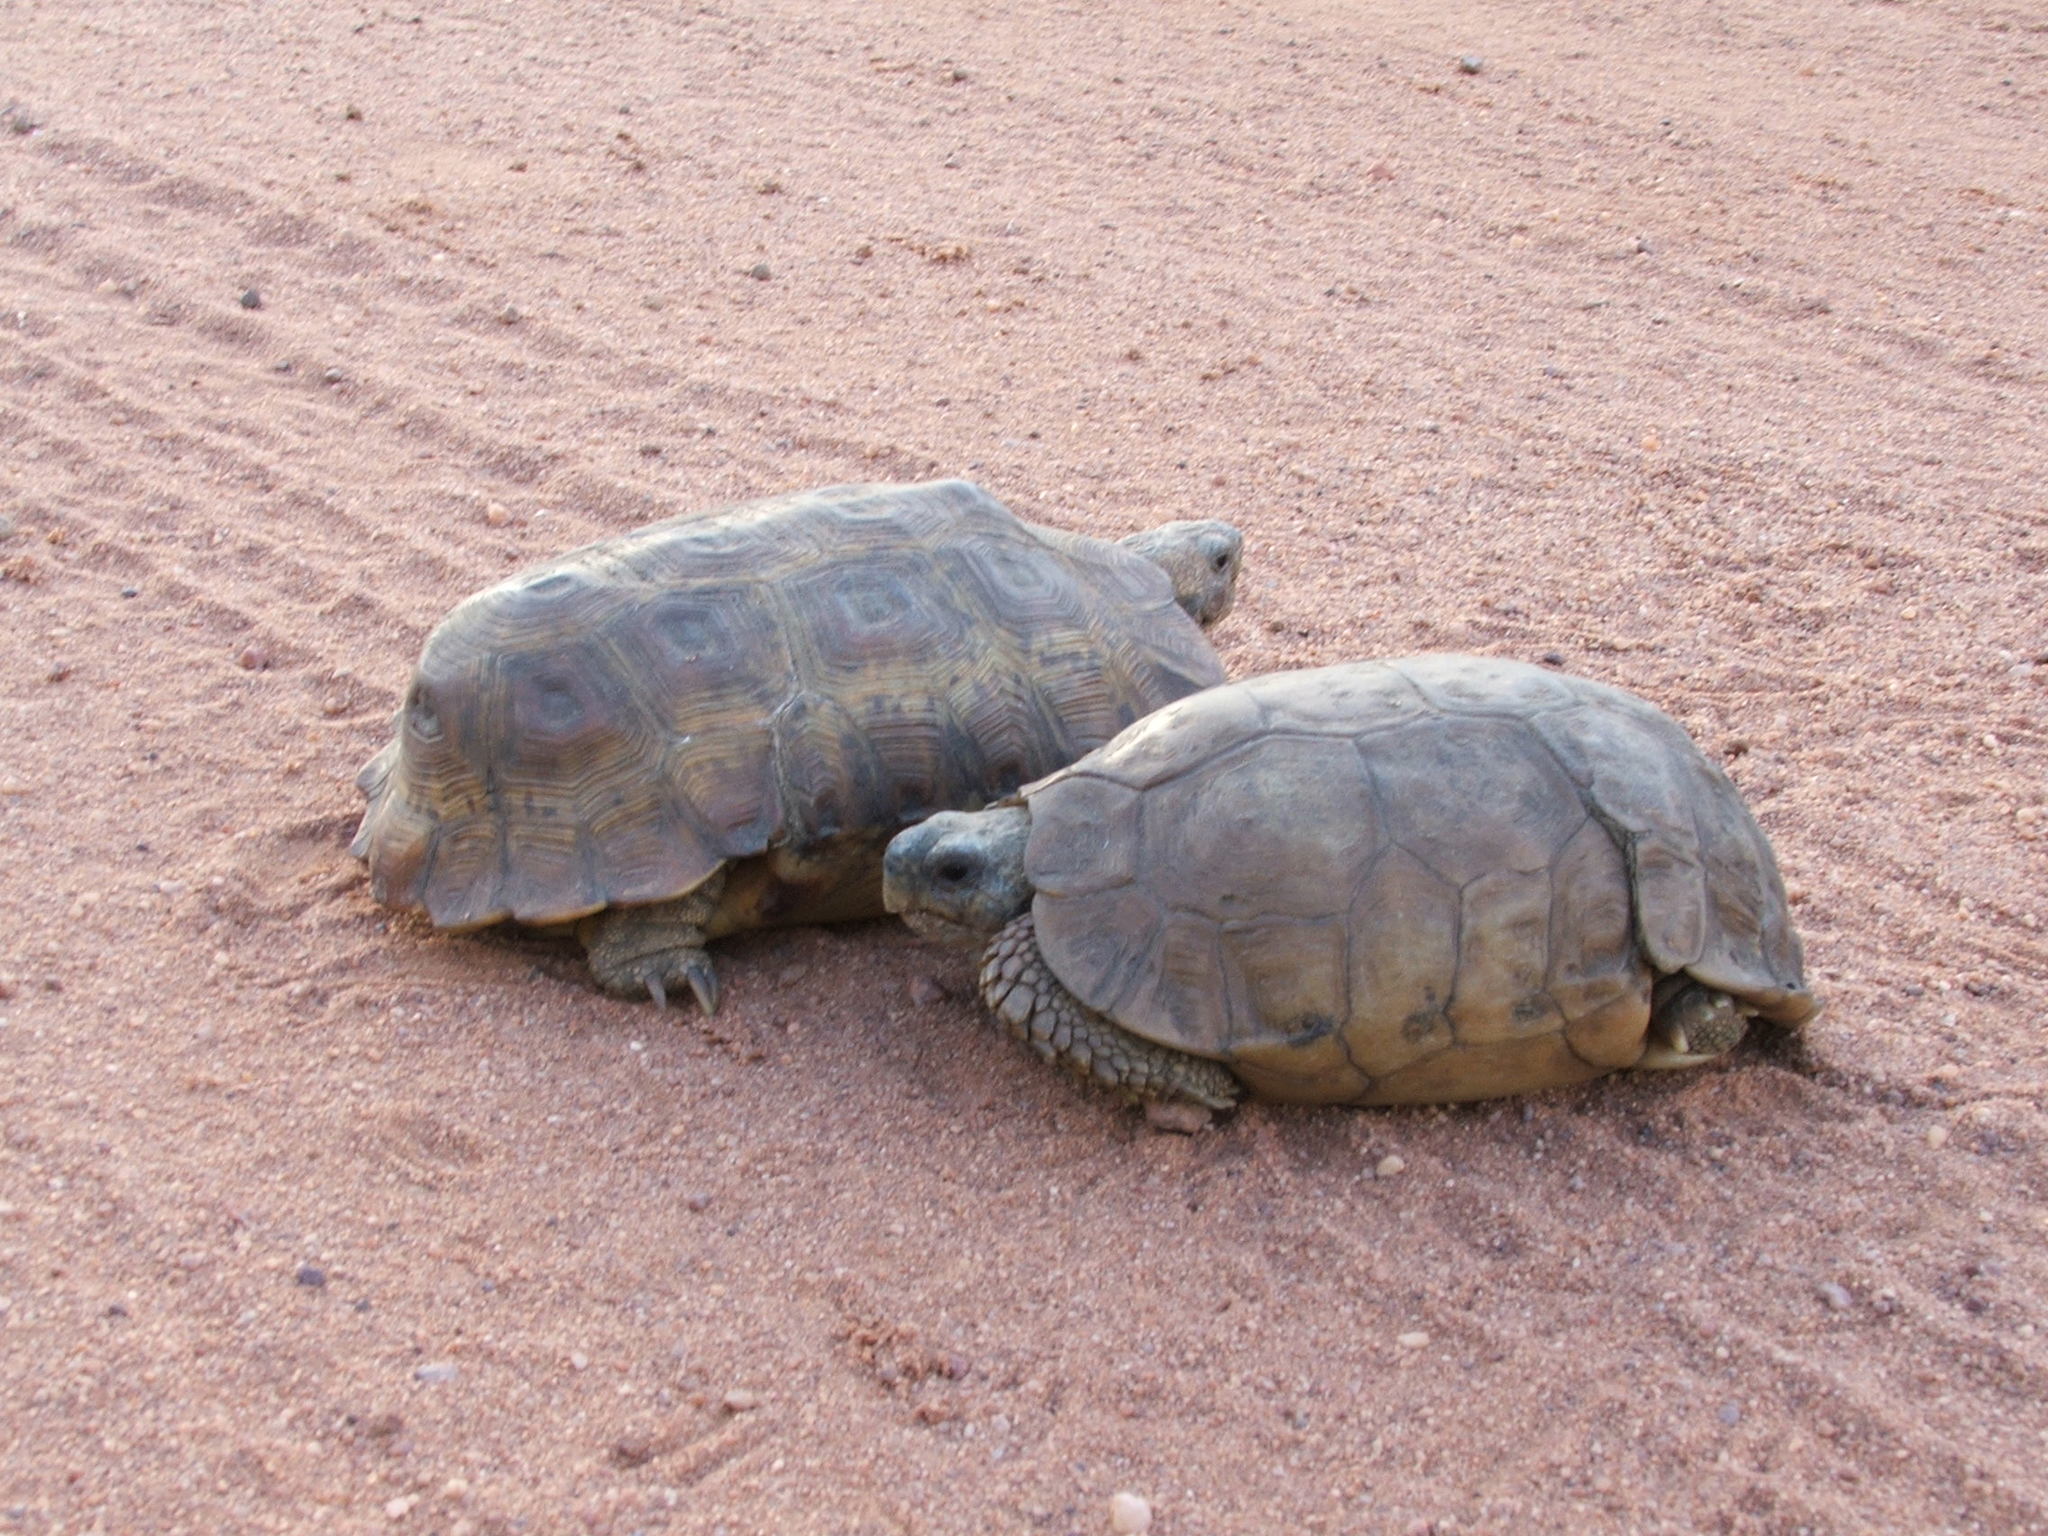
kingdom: Animalia
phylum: Chordata
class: Testudines
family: Testudinidae
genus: Kinixys
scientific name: Kinixys lobatsiana
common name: Lobatse hinge-back tortoise
